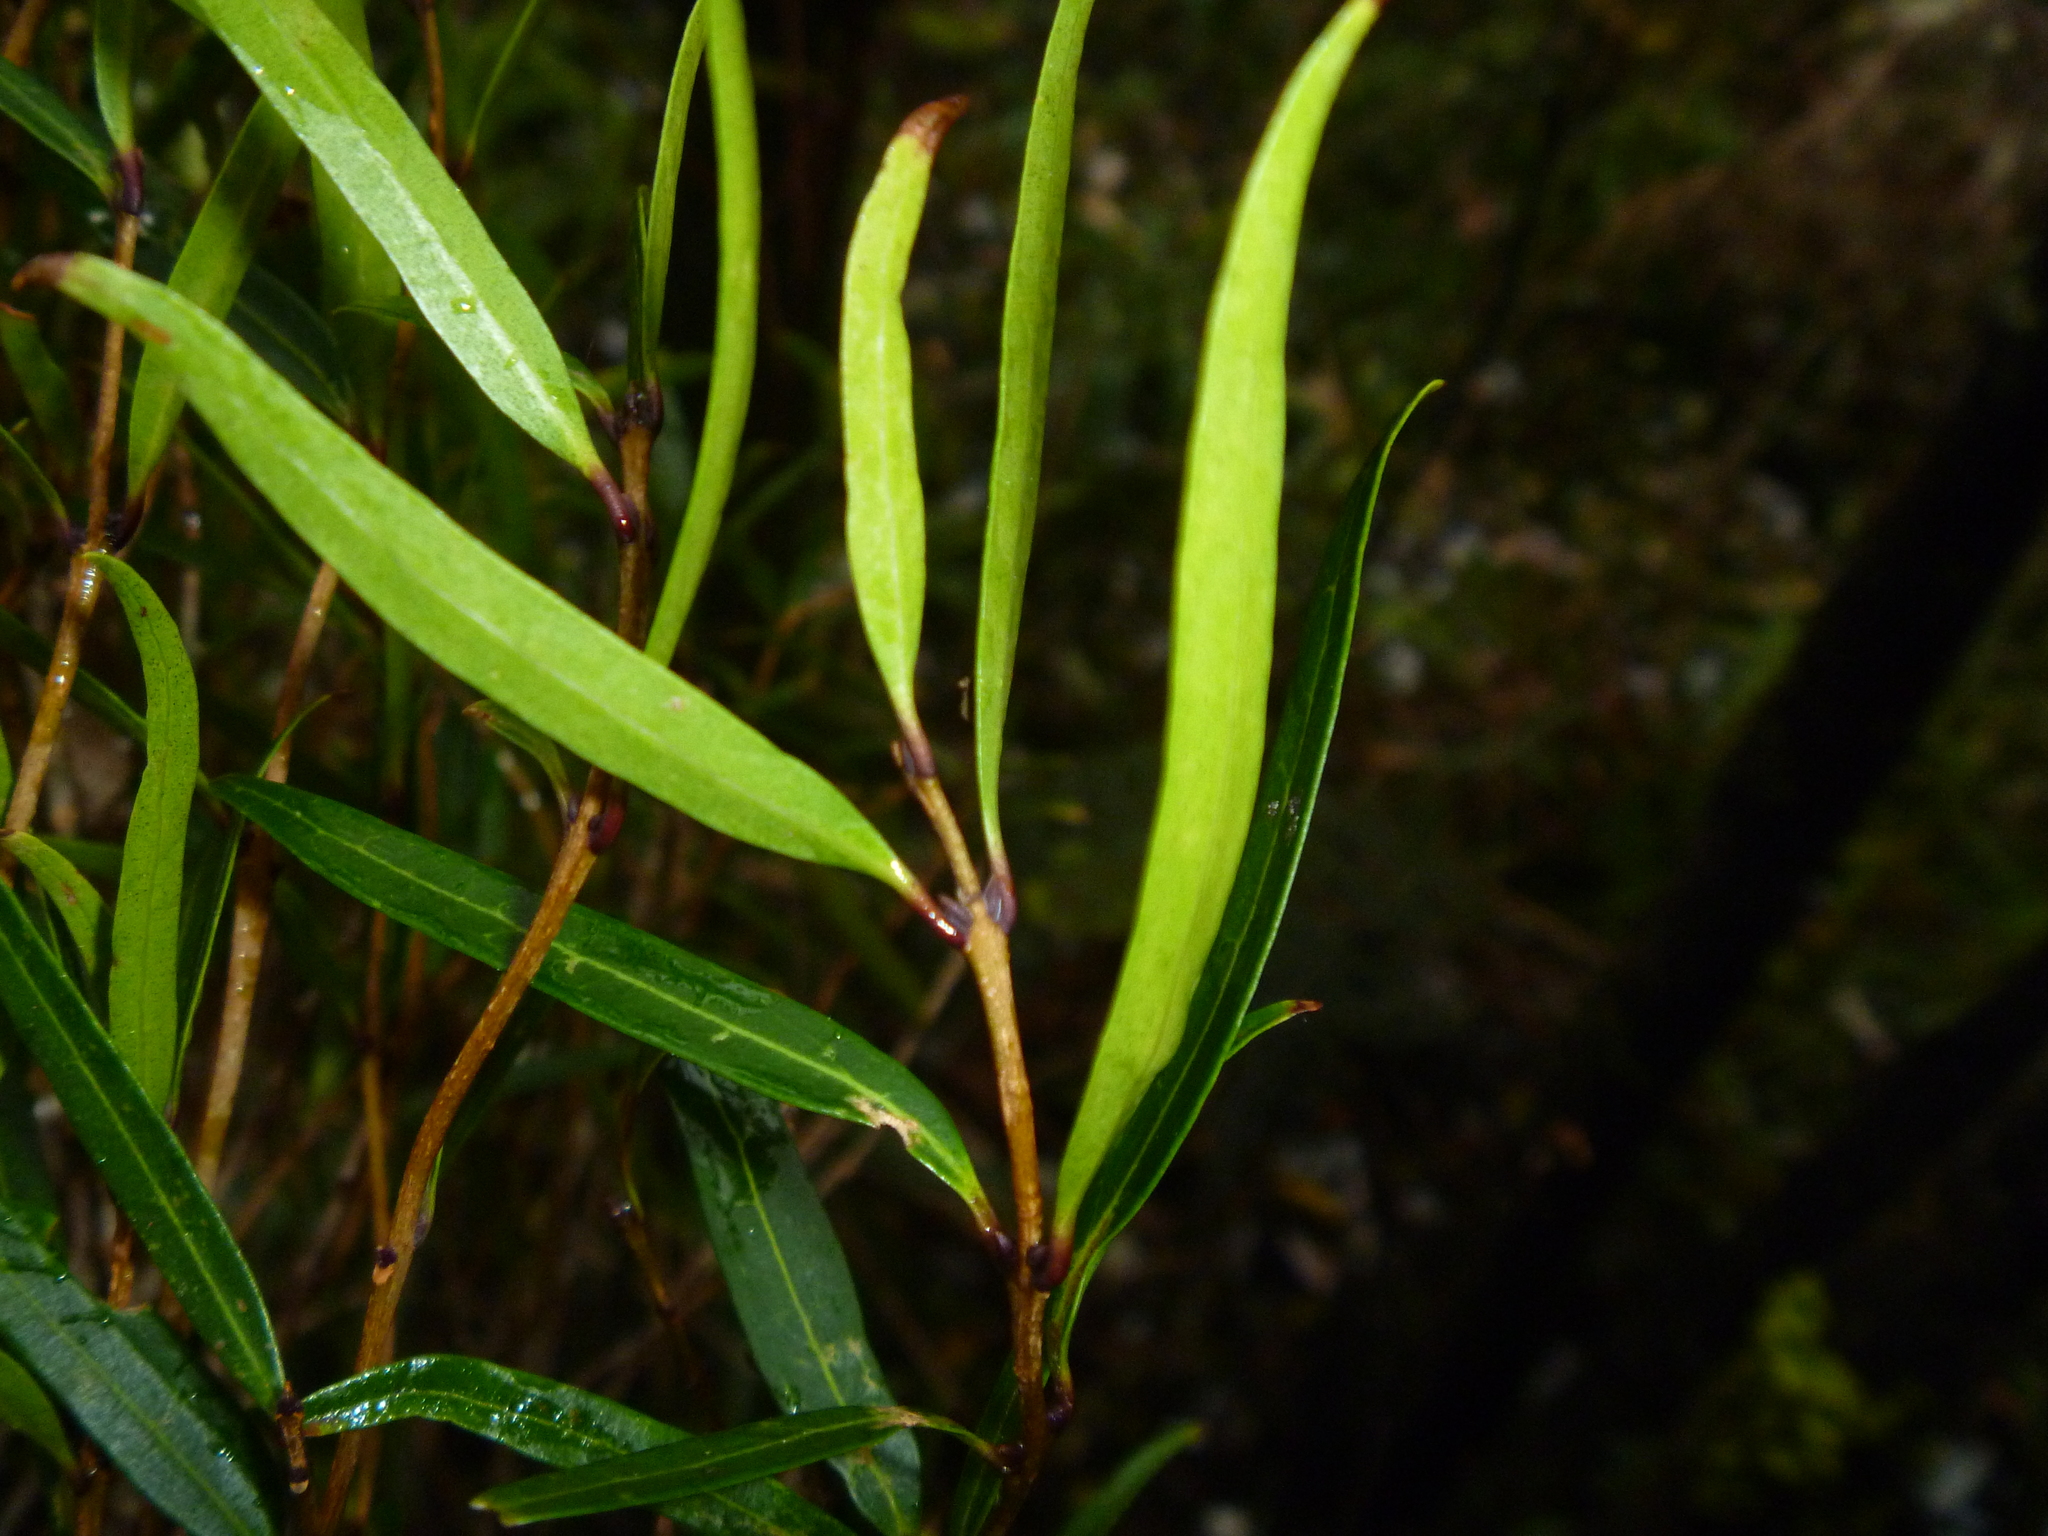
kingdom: Plantae
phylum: Tracheophyta
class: Magnoliopsida
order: Lamiales
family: Oleaceae
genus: Nestegis
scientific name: Nestegis lanceolata
